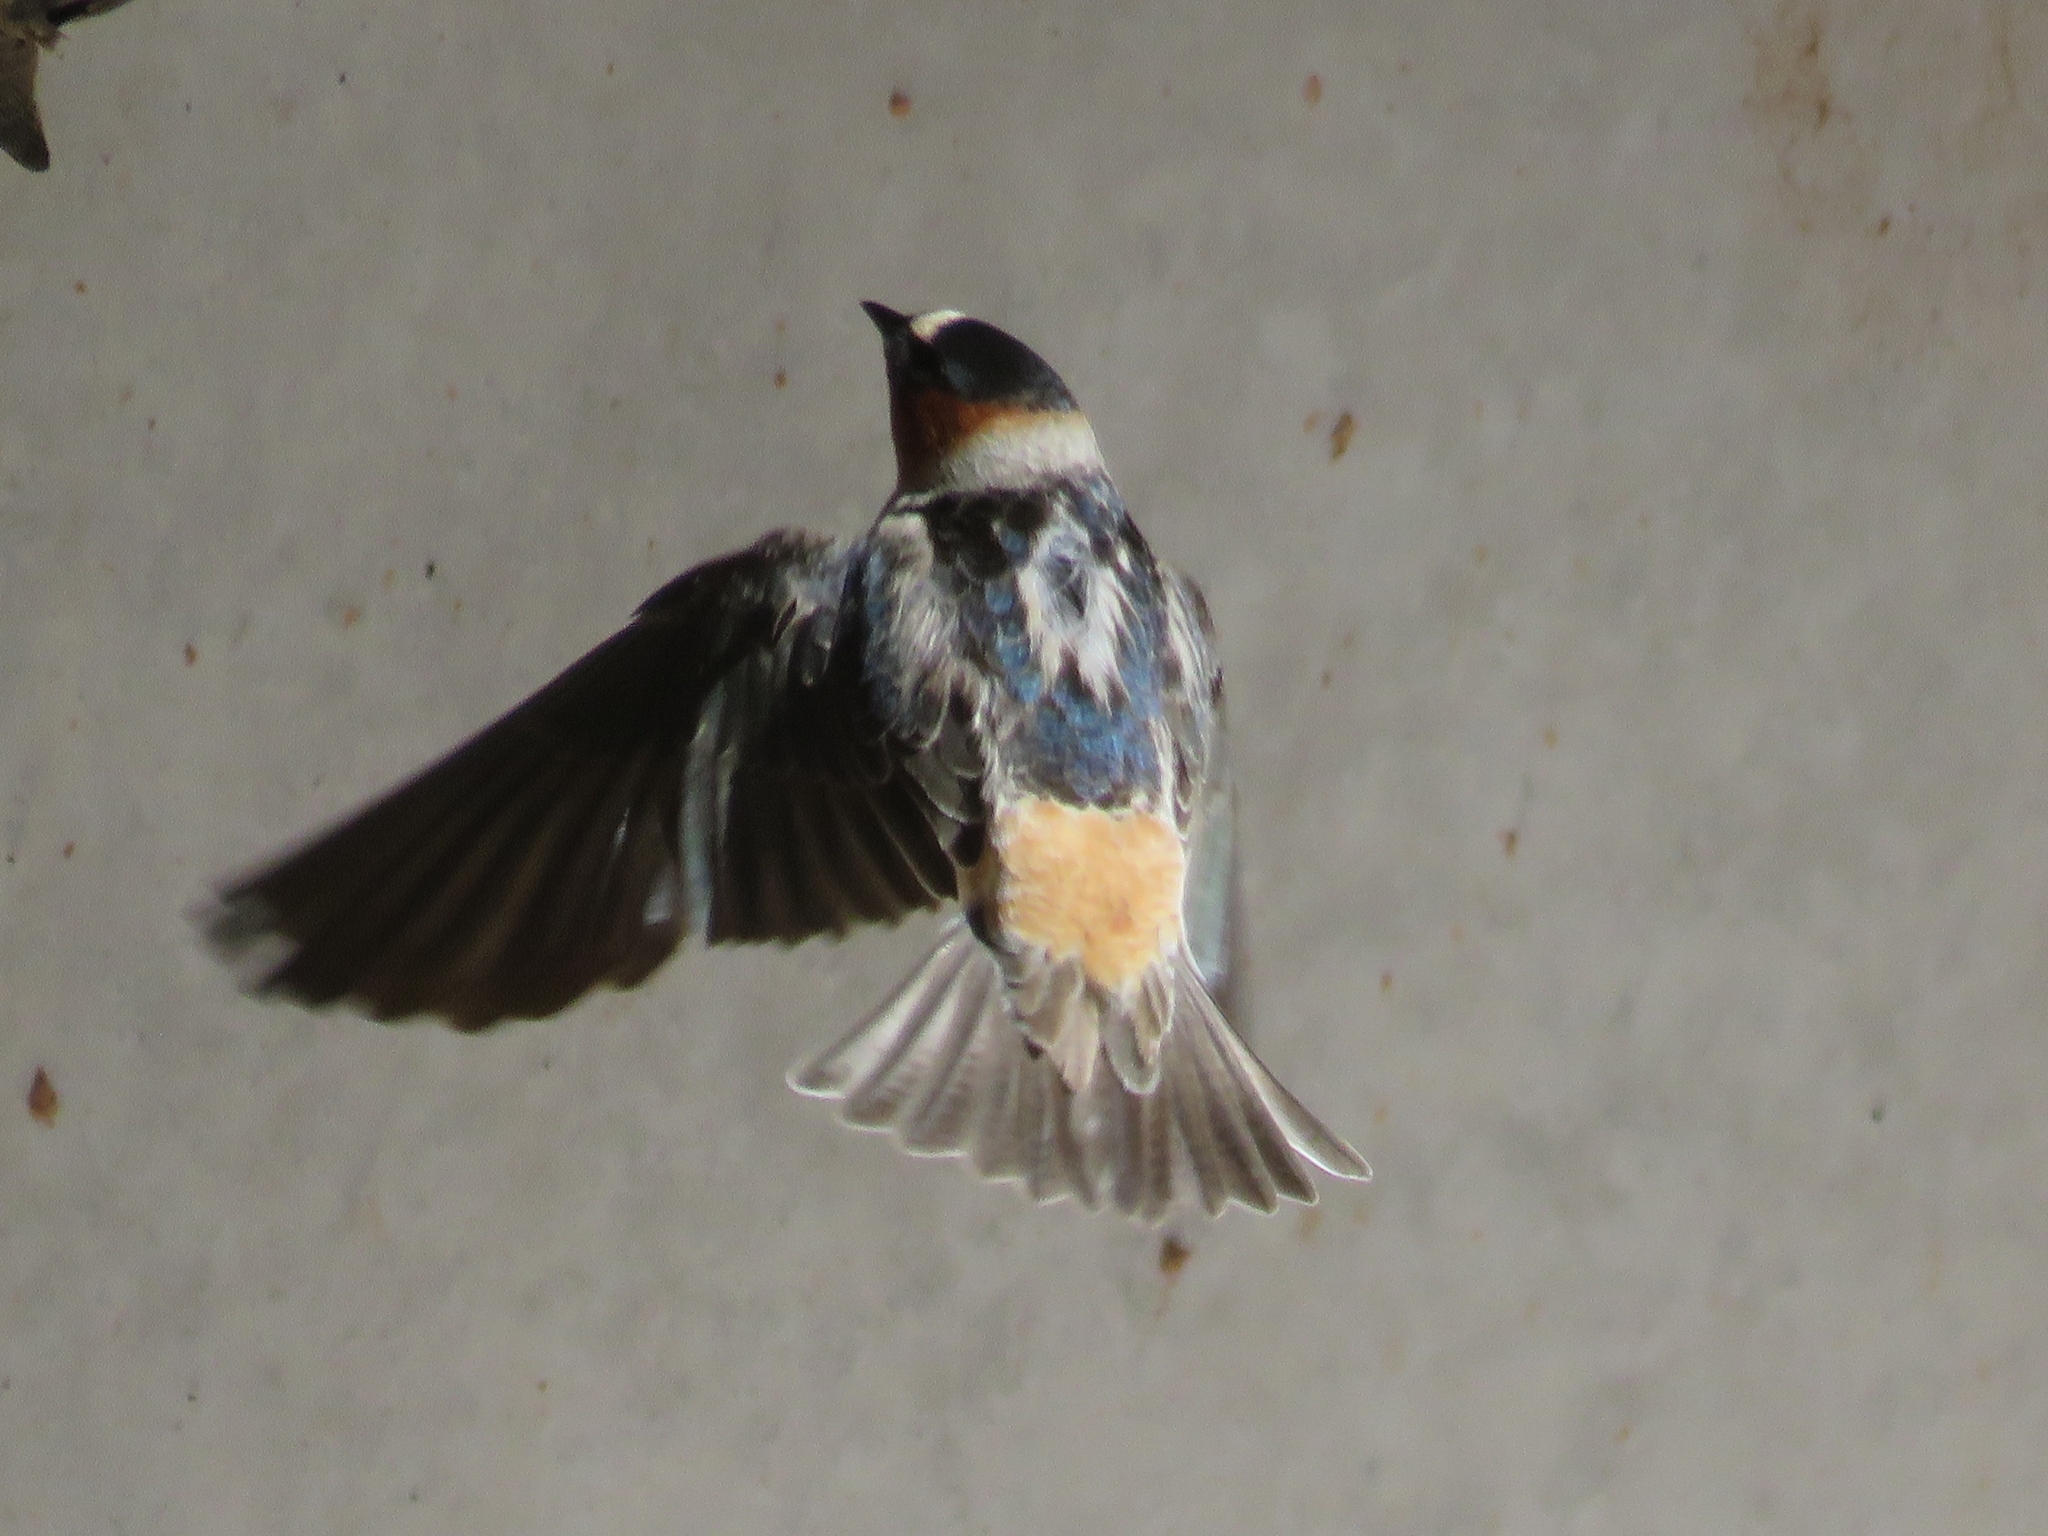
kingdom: Animalia
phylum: Chordata
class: Aves
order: Passeriformes
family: Hirundinidae
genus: Petrochelidon
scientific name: Petrochelidon pyrrhonota
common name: American cliff swallow
